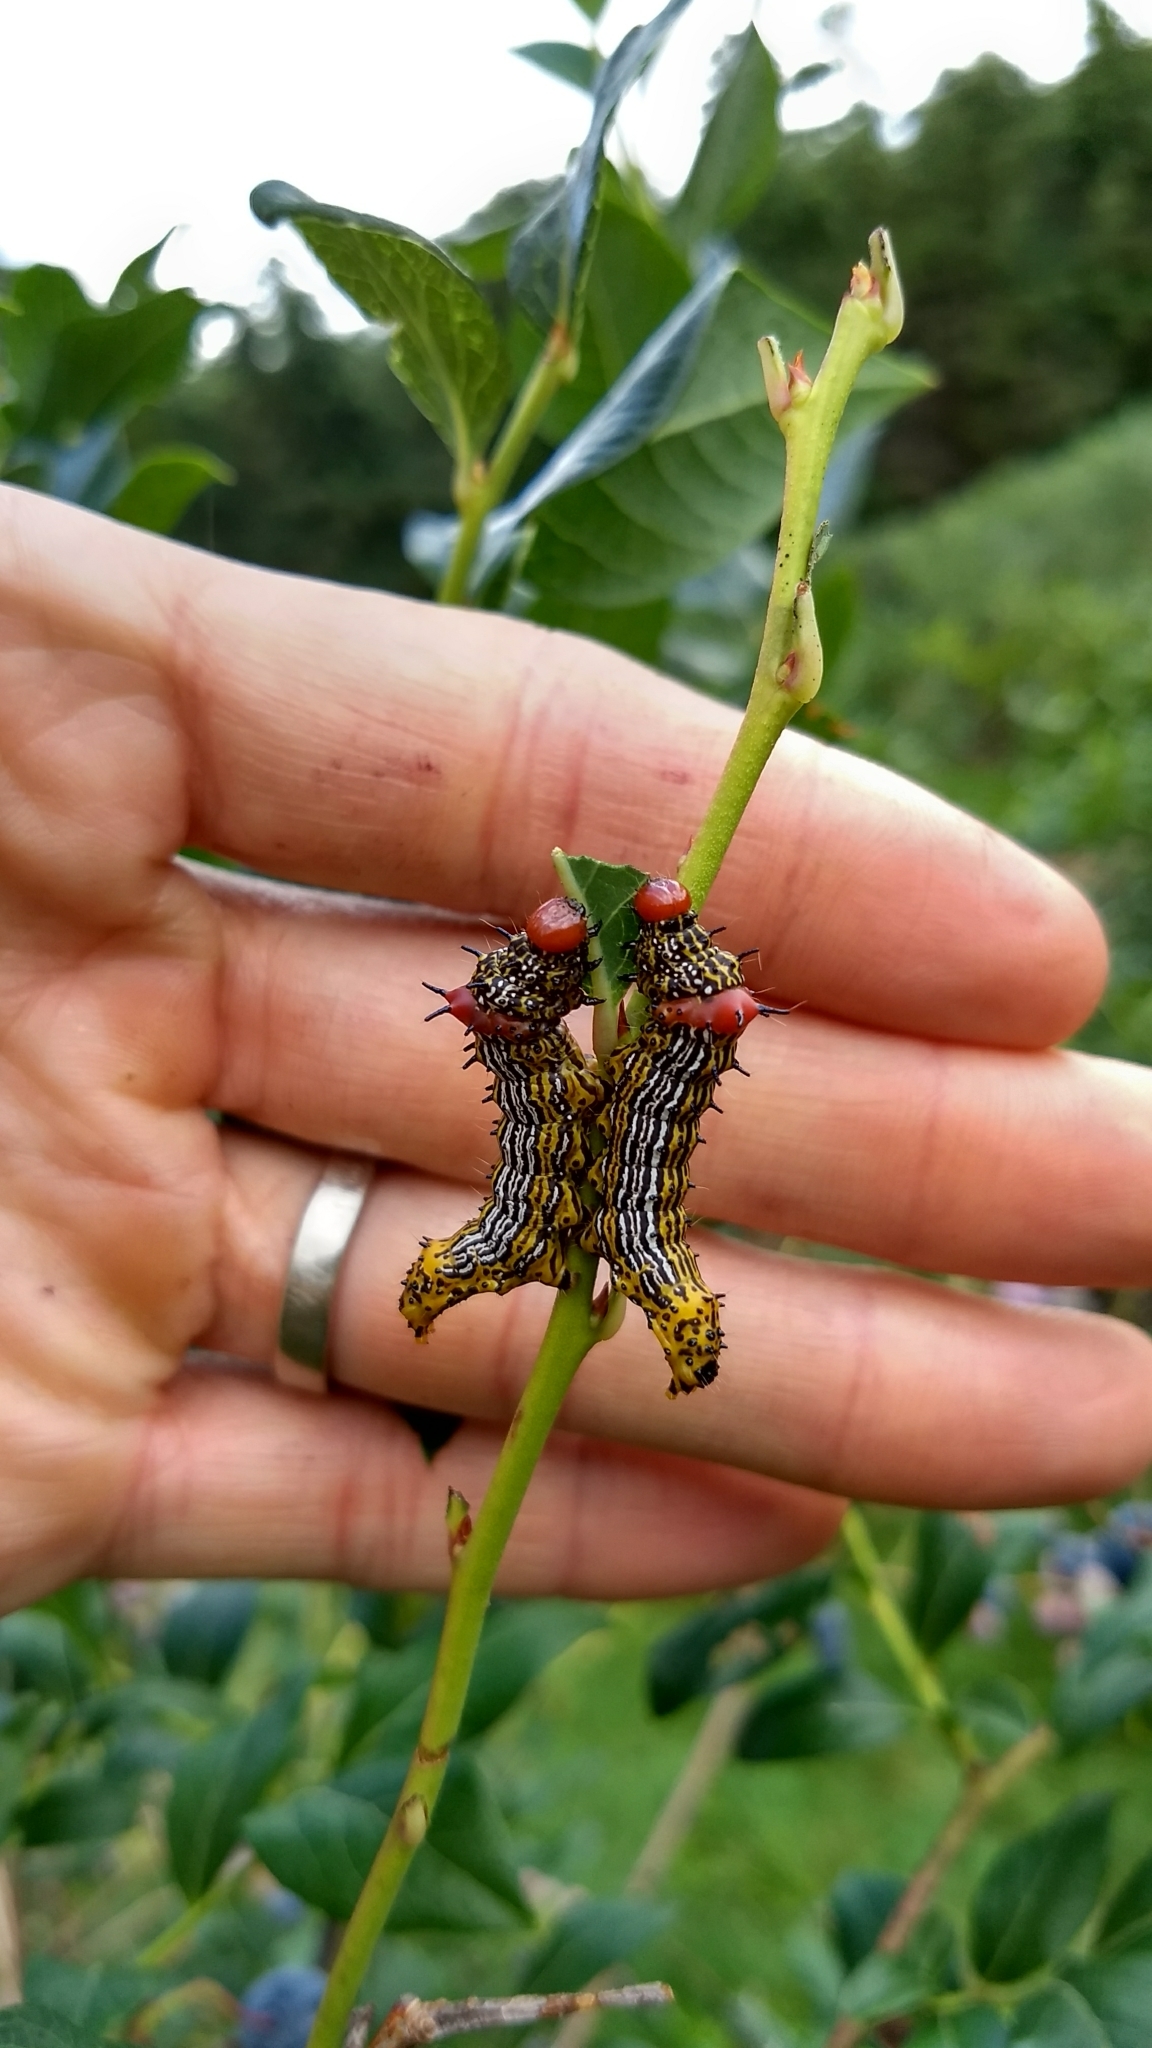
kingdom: Animalia
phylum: Arthropoda
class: Insecta
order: Lepidoptera
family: Notodontidae
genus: Schizura
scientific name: Schizura
